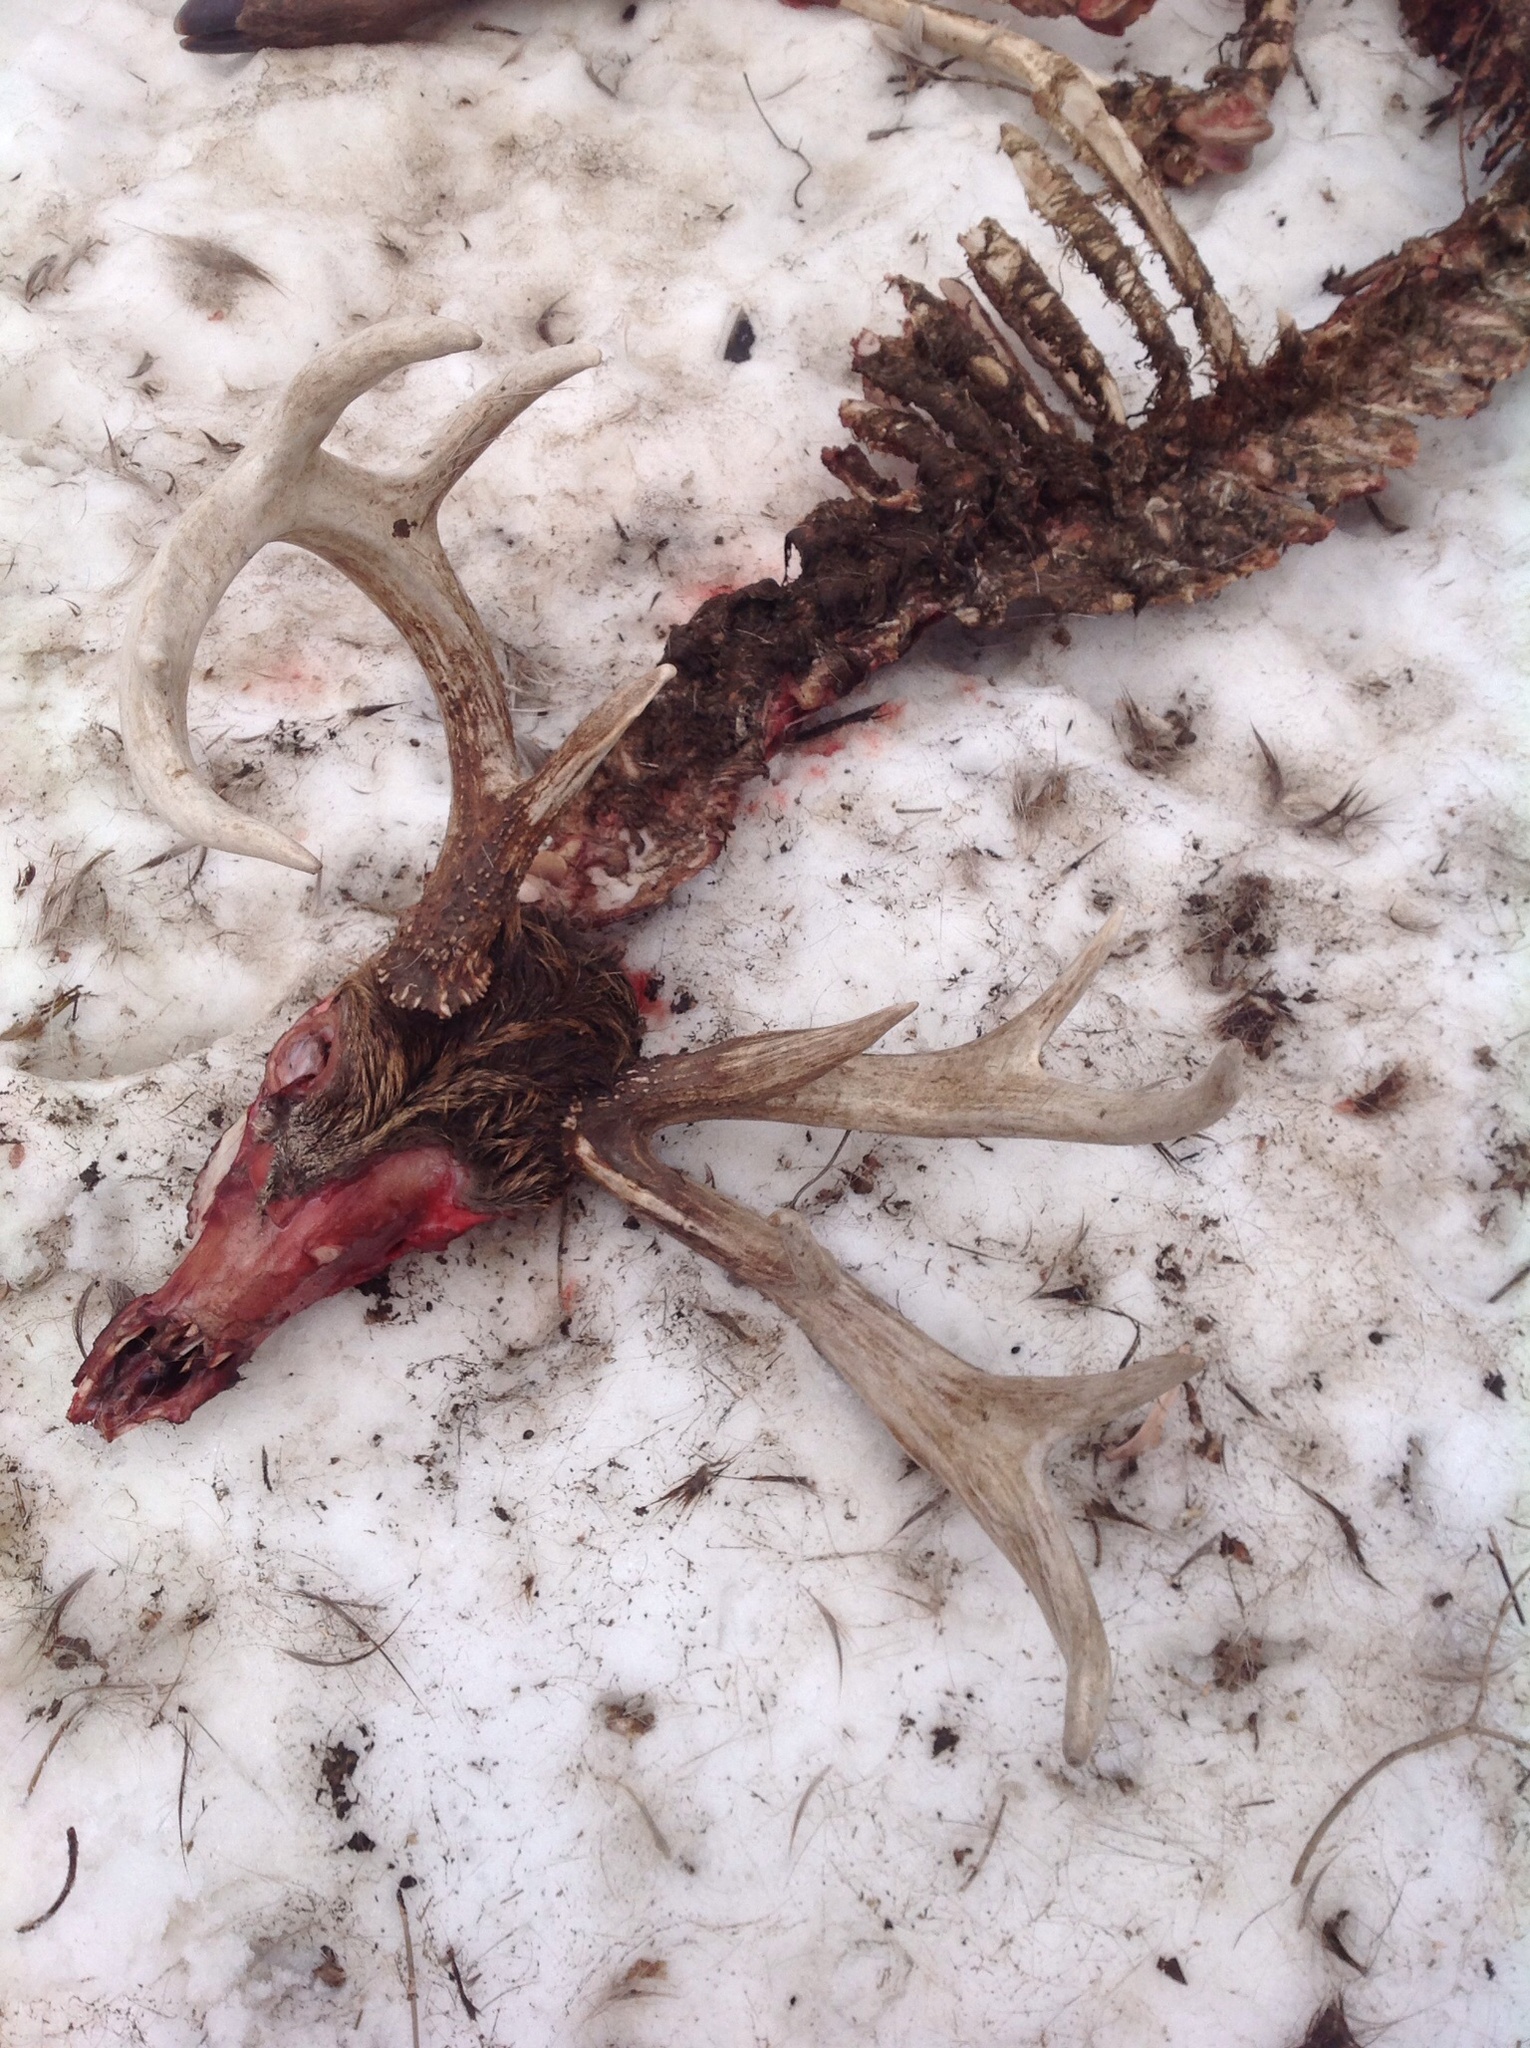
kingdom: Animalia
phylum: Chordata
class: Mammalia
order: Artiodactyla
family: Cervidae
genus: Odocoileus
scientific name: Odocoileus virginianus
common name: White-tailed deer
